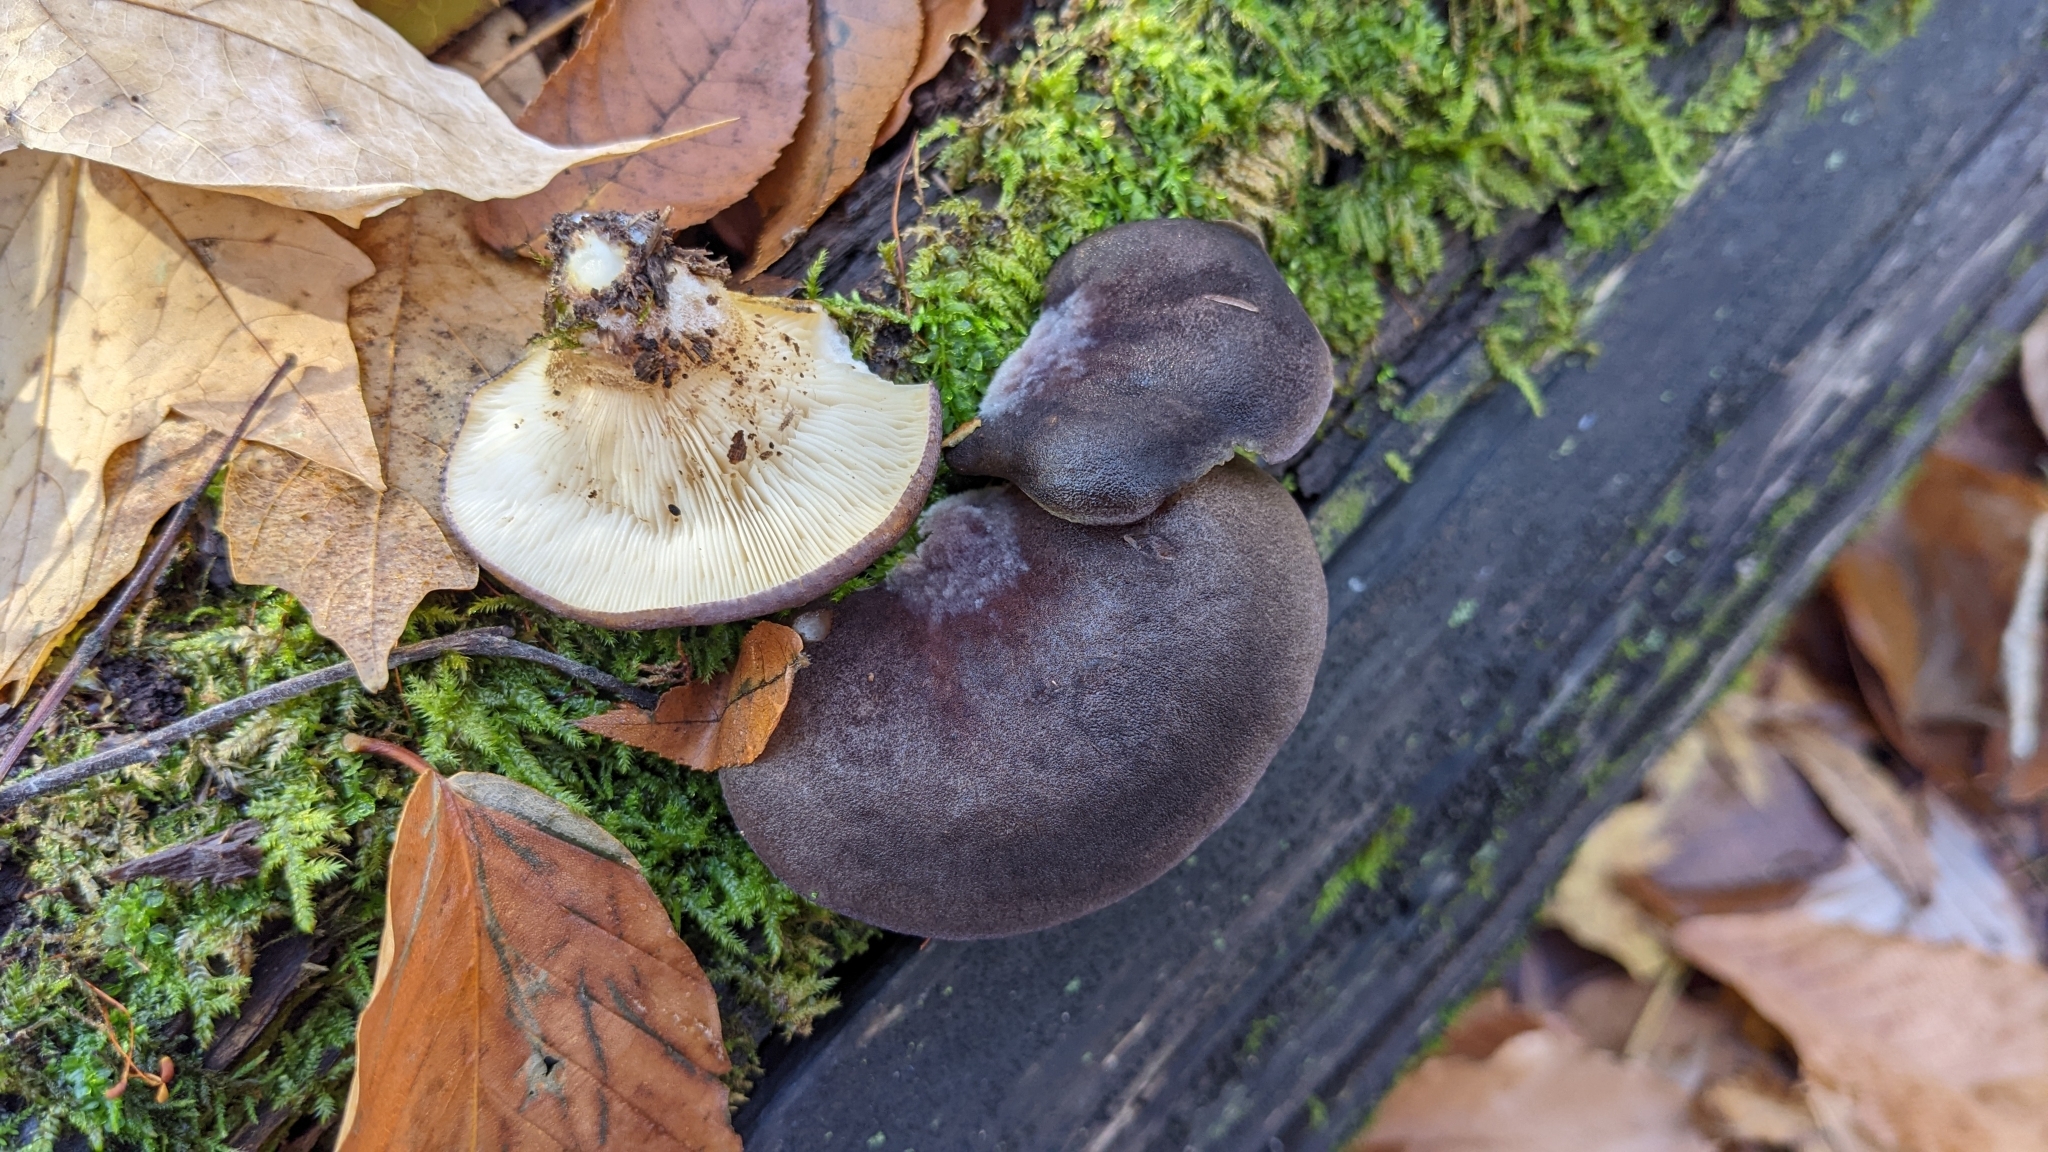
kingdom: Fungi
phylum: Basidiomycota
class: Agaricomycetes
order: Agaricales
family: Sarcomyxaceae
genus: Sarcomyxa
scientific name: Sarcomyxa serotina
